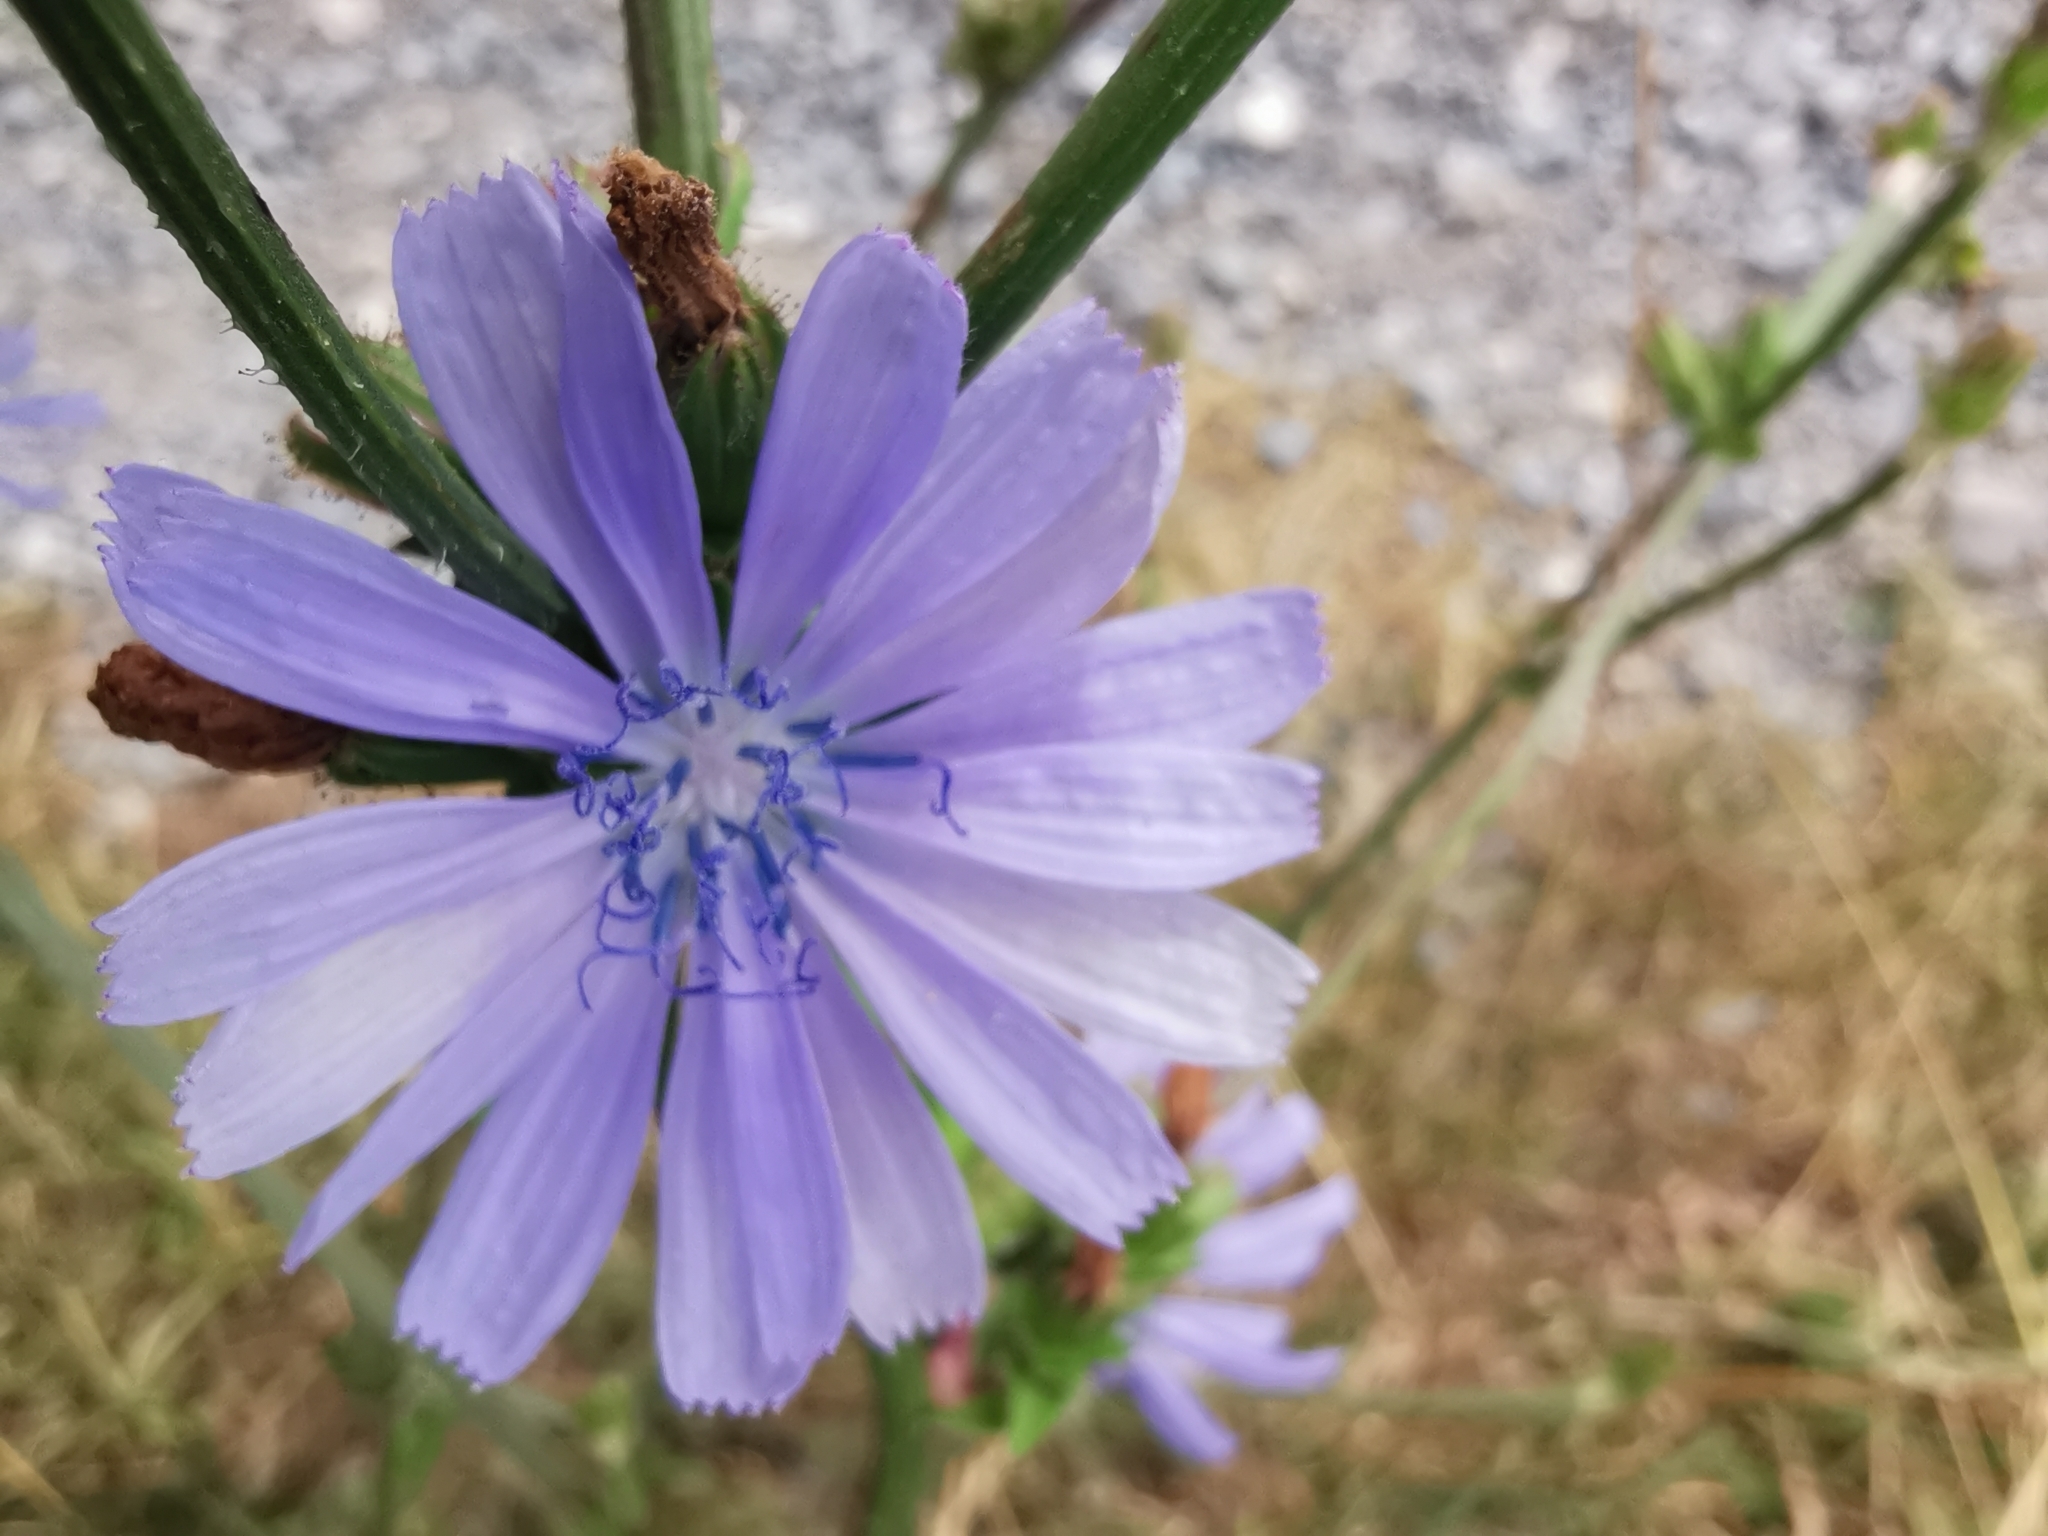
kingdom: Plantae
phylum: Tracheophyta
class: Magnoliopsida
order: Asterales
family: Asteraceae
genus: Cichorium
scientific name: Cichorium intybus
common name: Chicory
